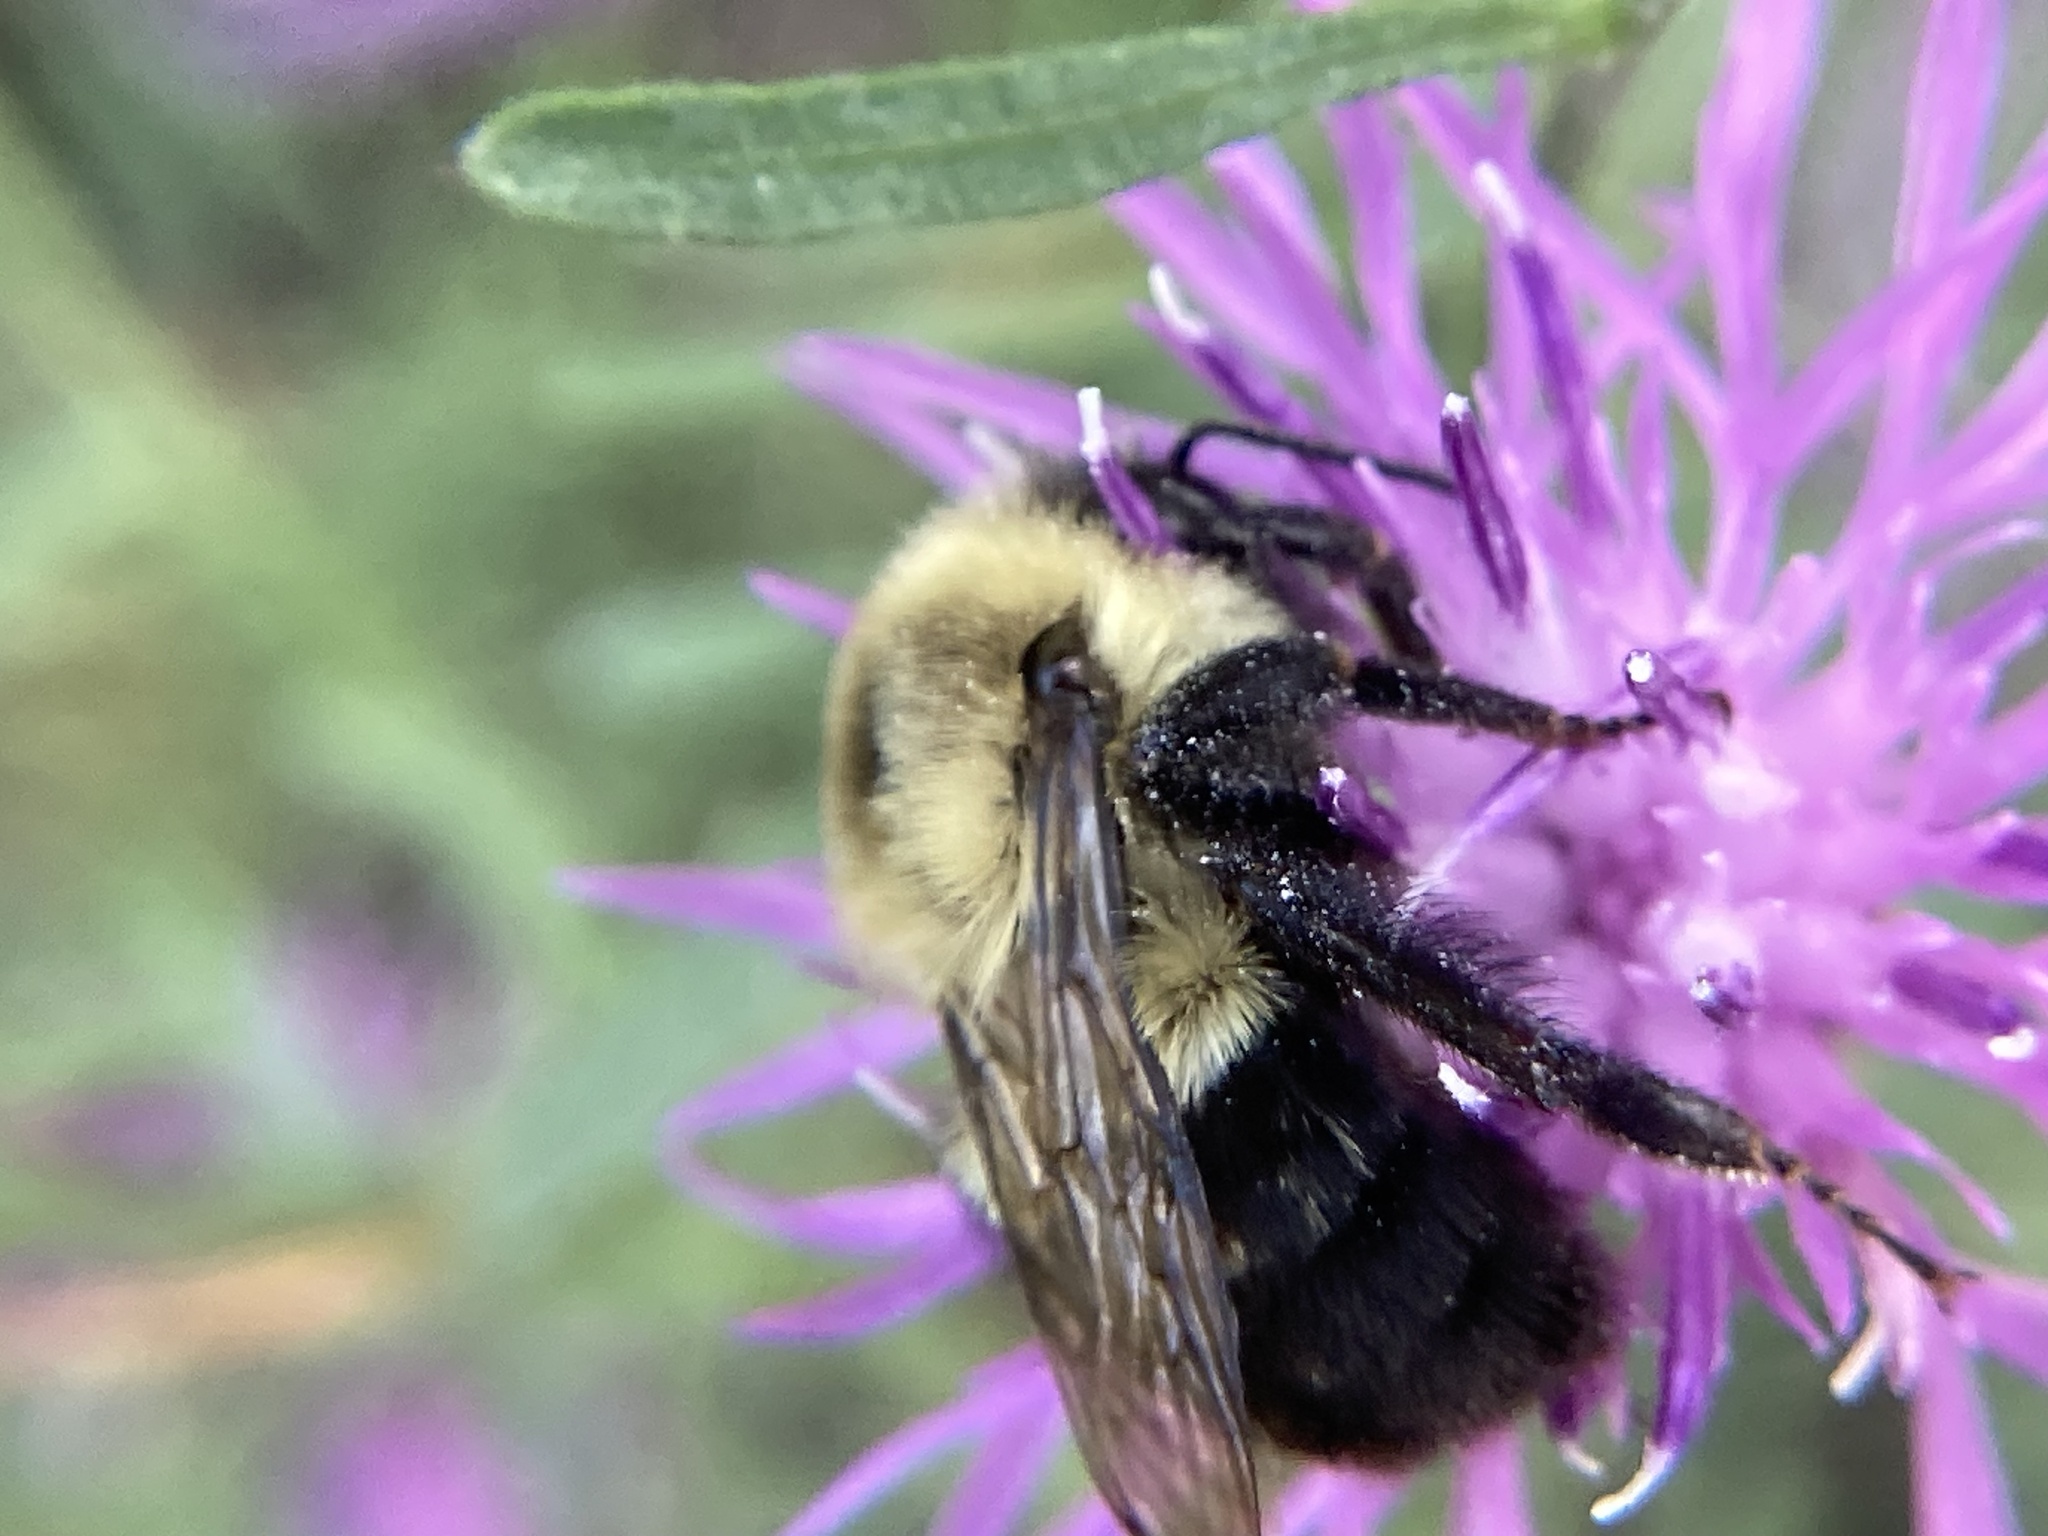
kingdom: Animalia
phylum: Arthropoda
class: Insecta
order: Hymenoptera
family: Apidae
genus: Bombus
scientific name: Bombus impatiens
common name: Common eastern bumble bee
